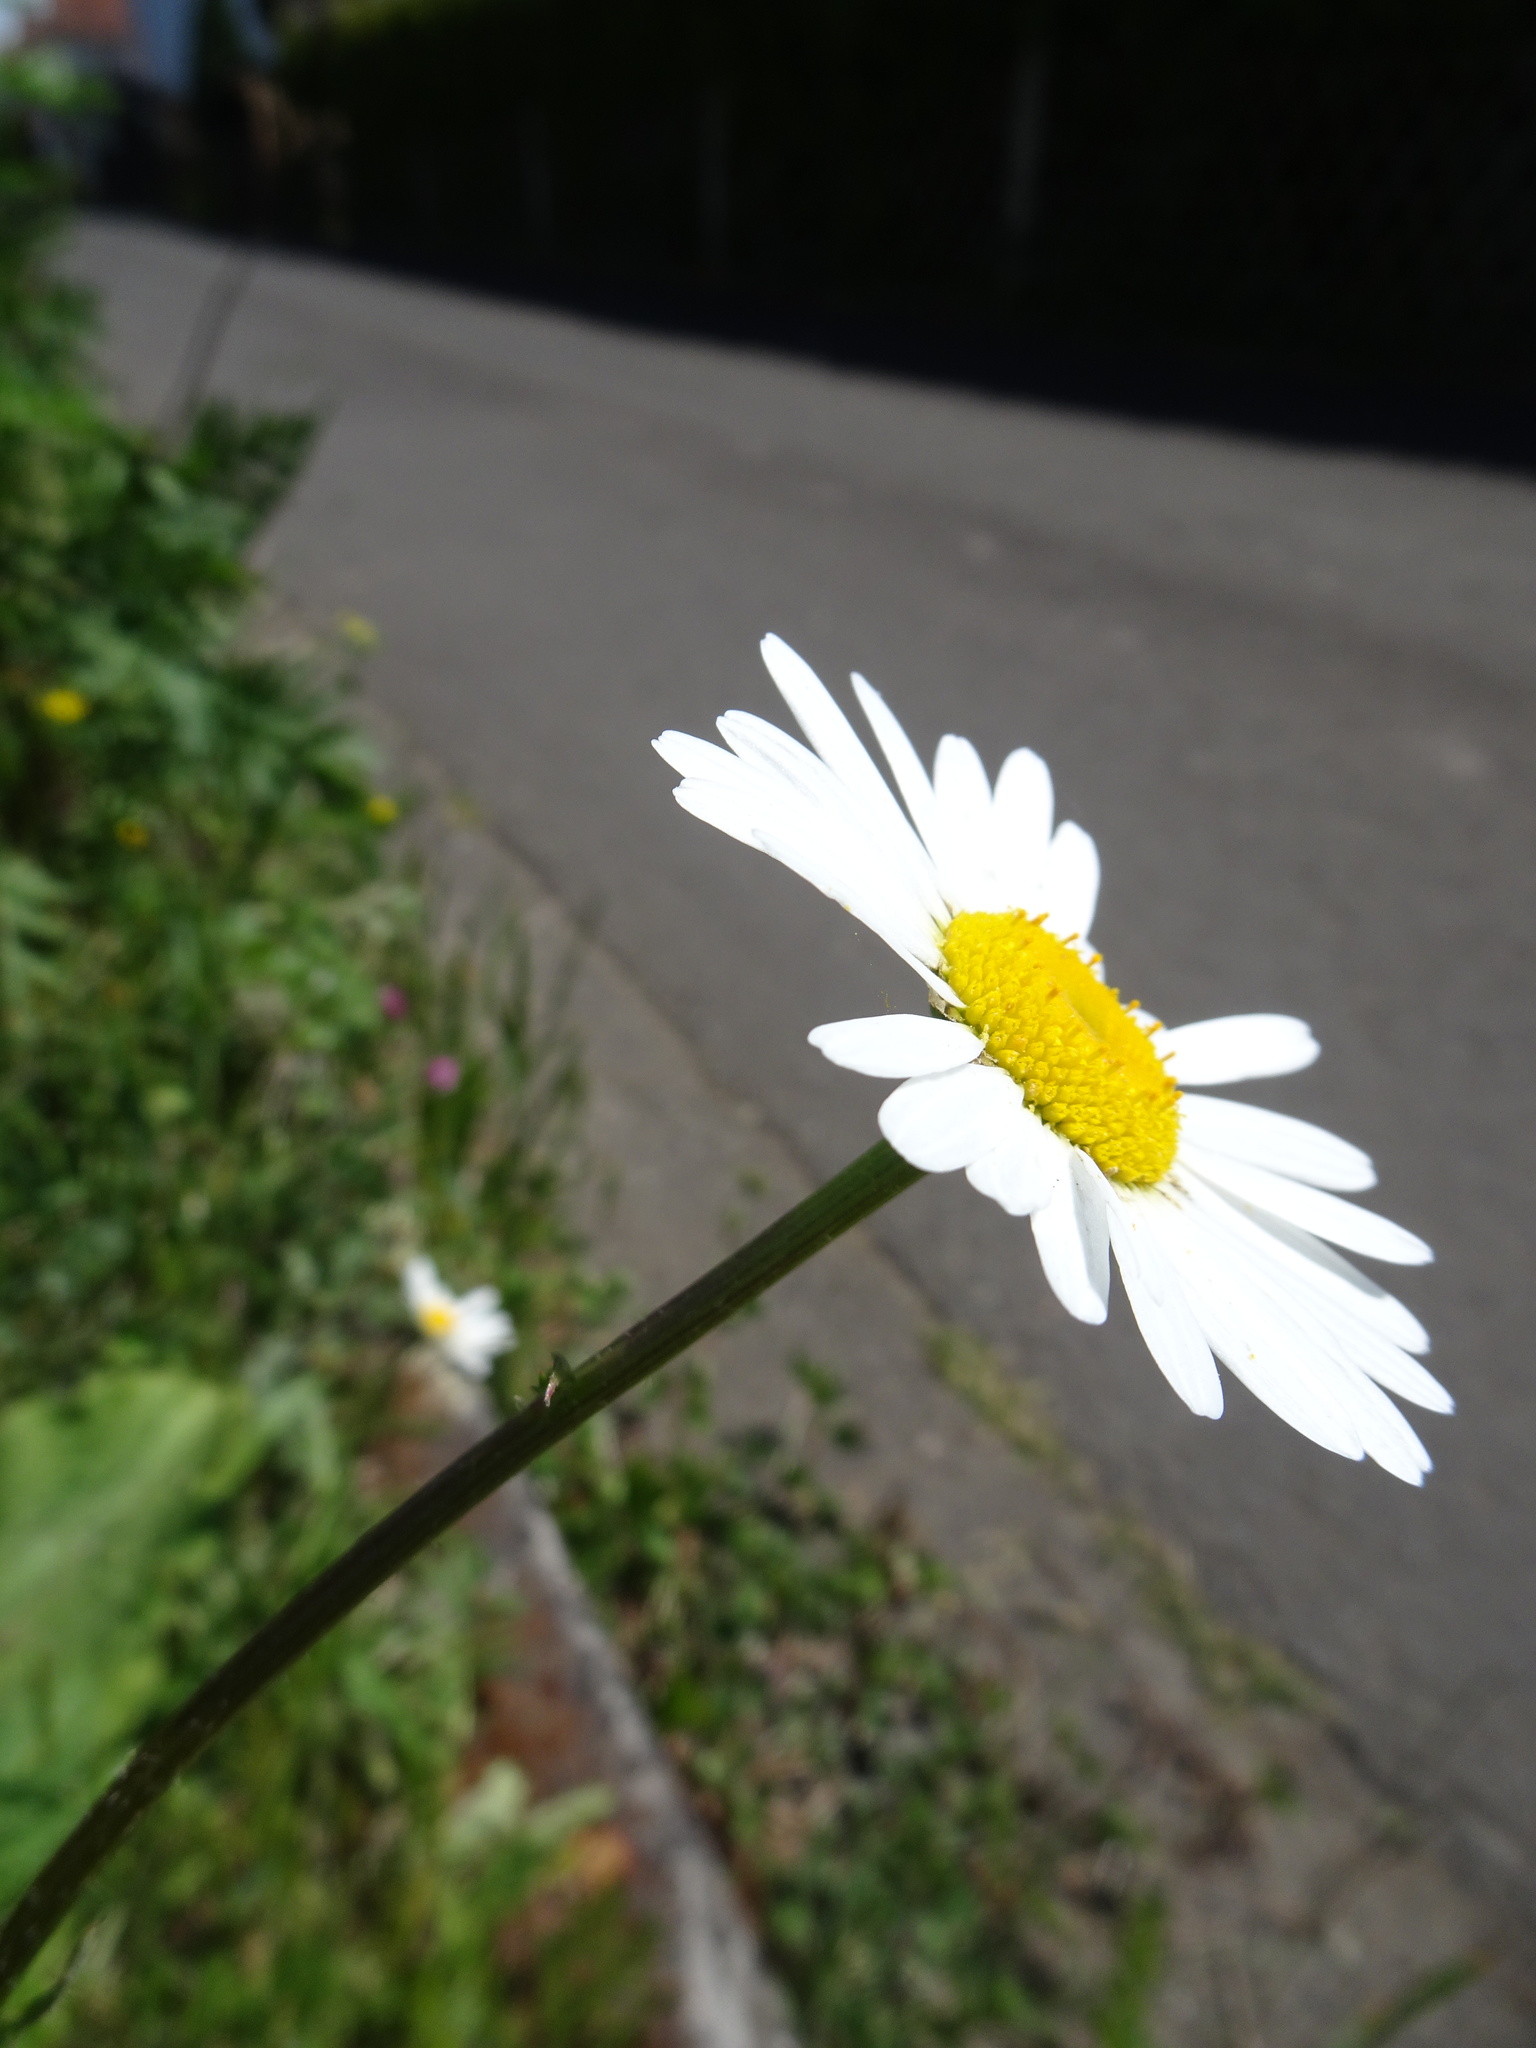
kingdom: Plantae
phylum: Tracheophyta
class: Magnoliopsida
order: Asterales
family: Asteraceae
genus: Leucanthemum
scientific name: Leucanthemum ircutianum
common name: Daisy
